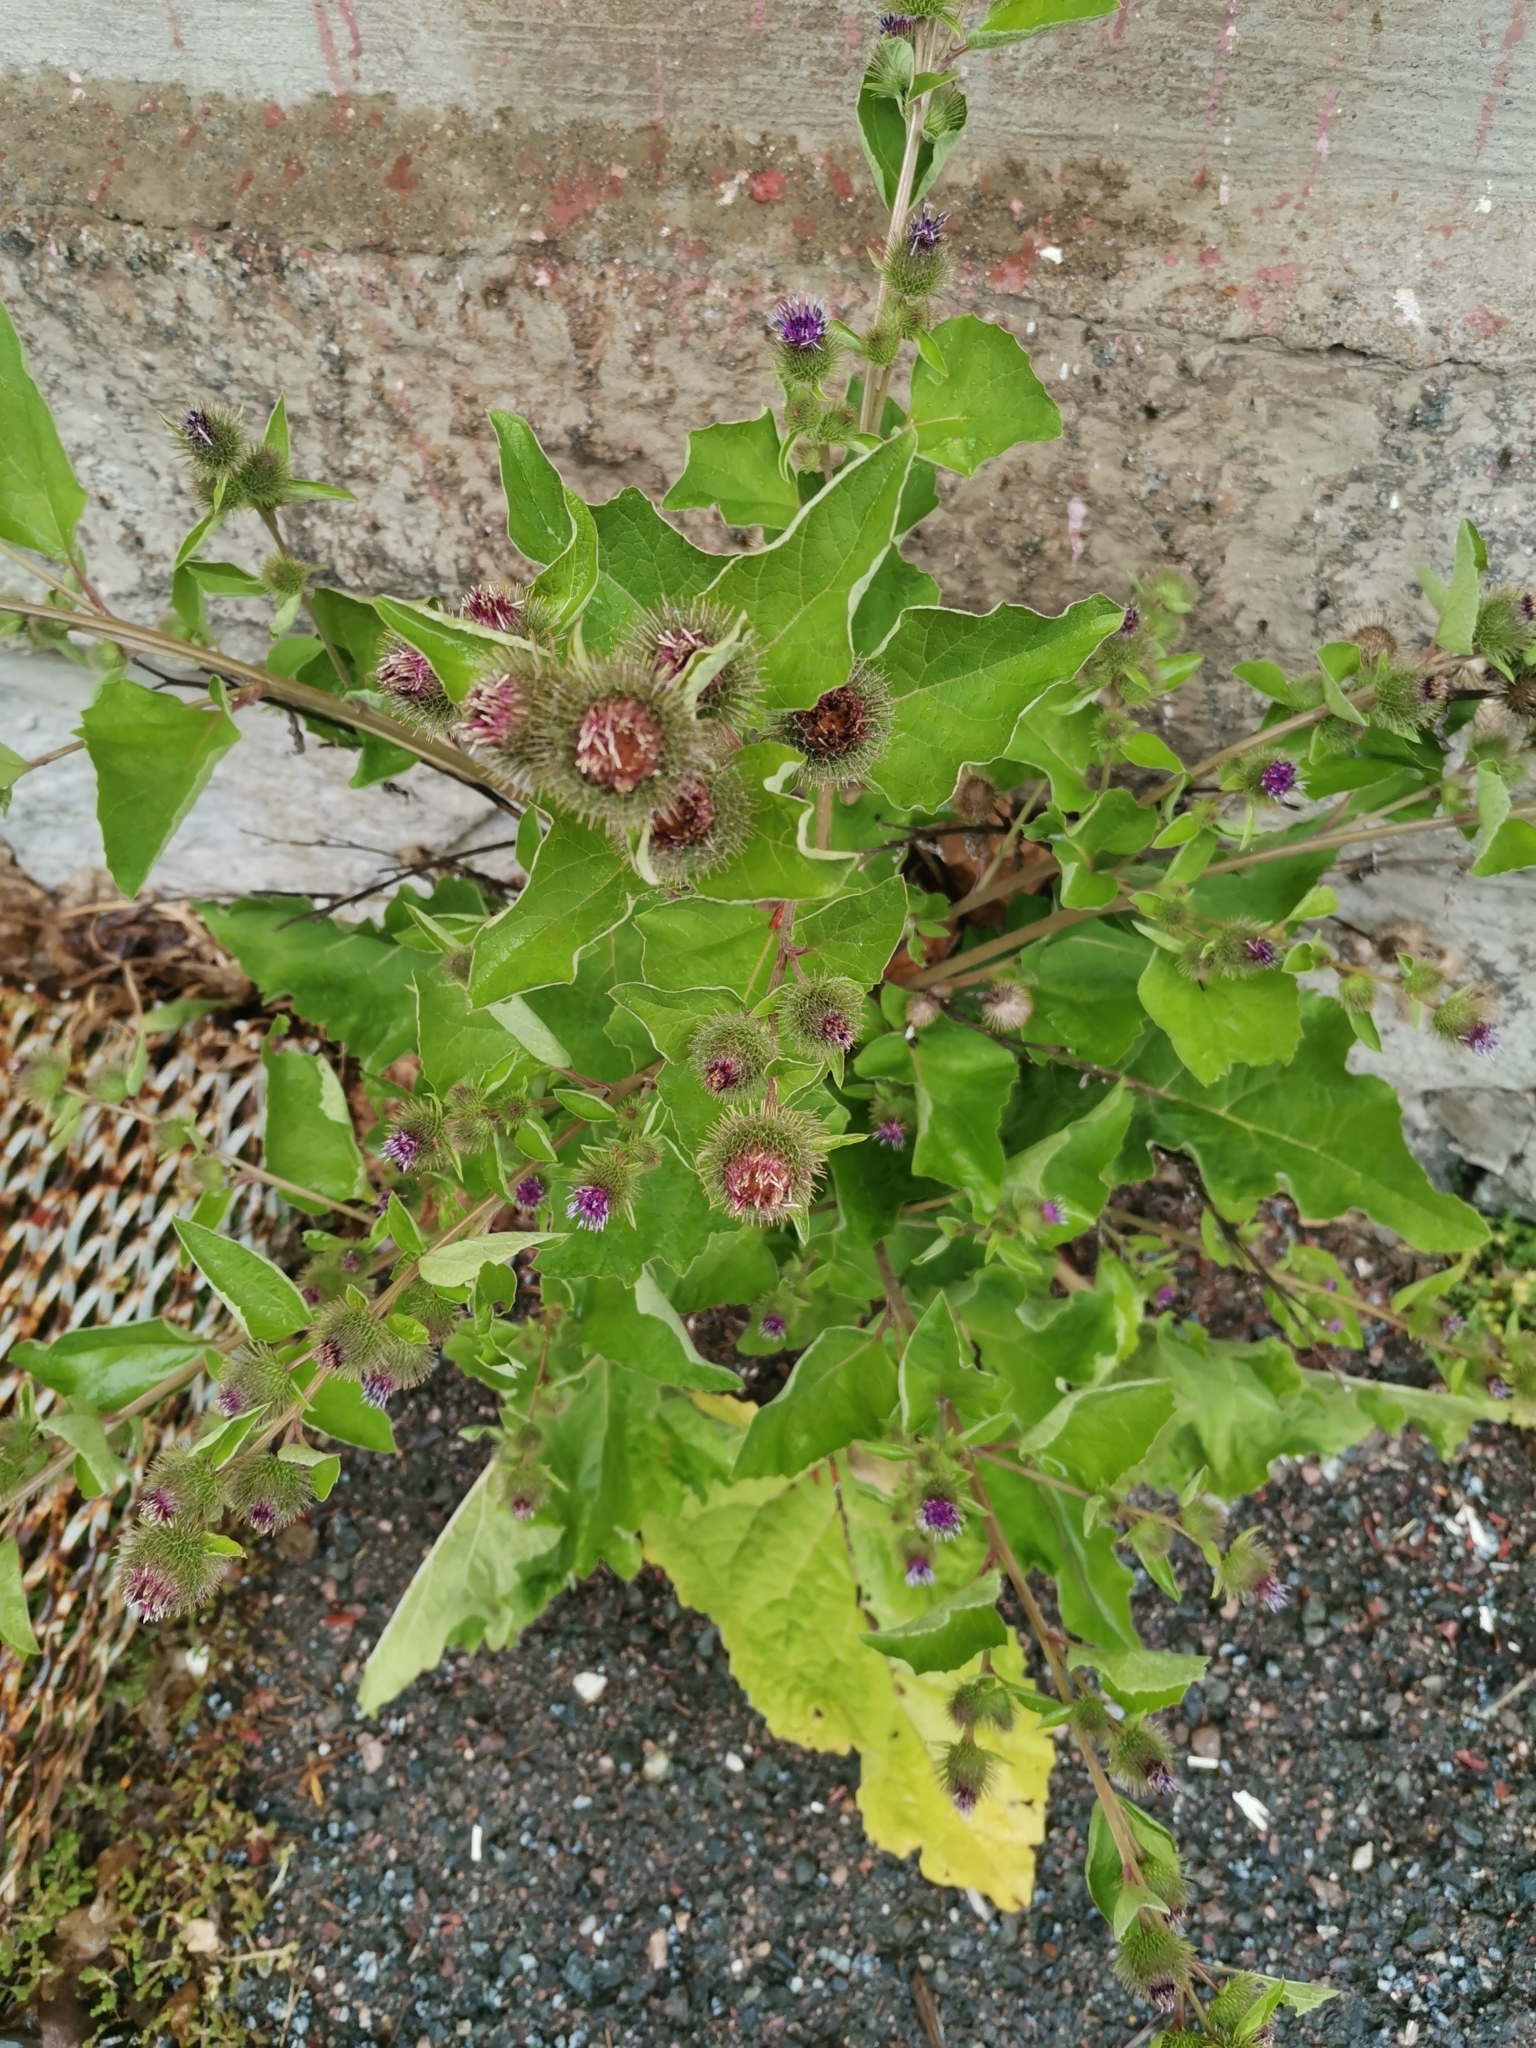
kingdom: Plantae
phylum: Tracheophyta
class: Magnoliopsida
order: Asterales
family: Asteraceae
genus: Arctium
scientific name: Arctium minus
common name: Lesser burdock
